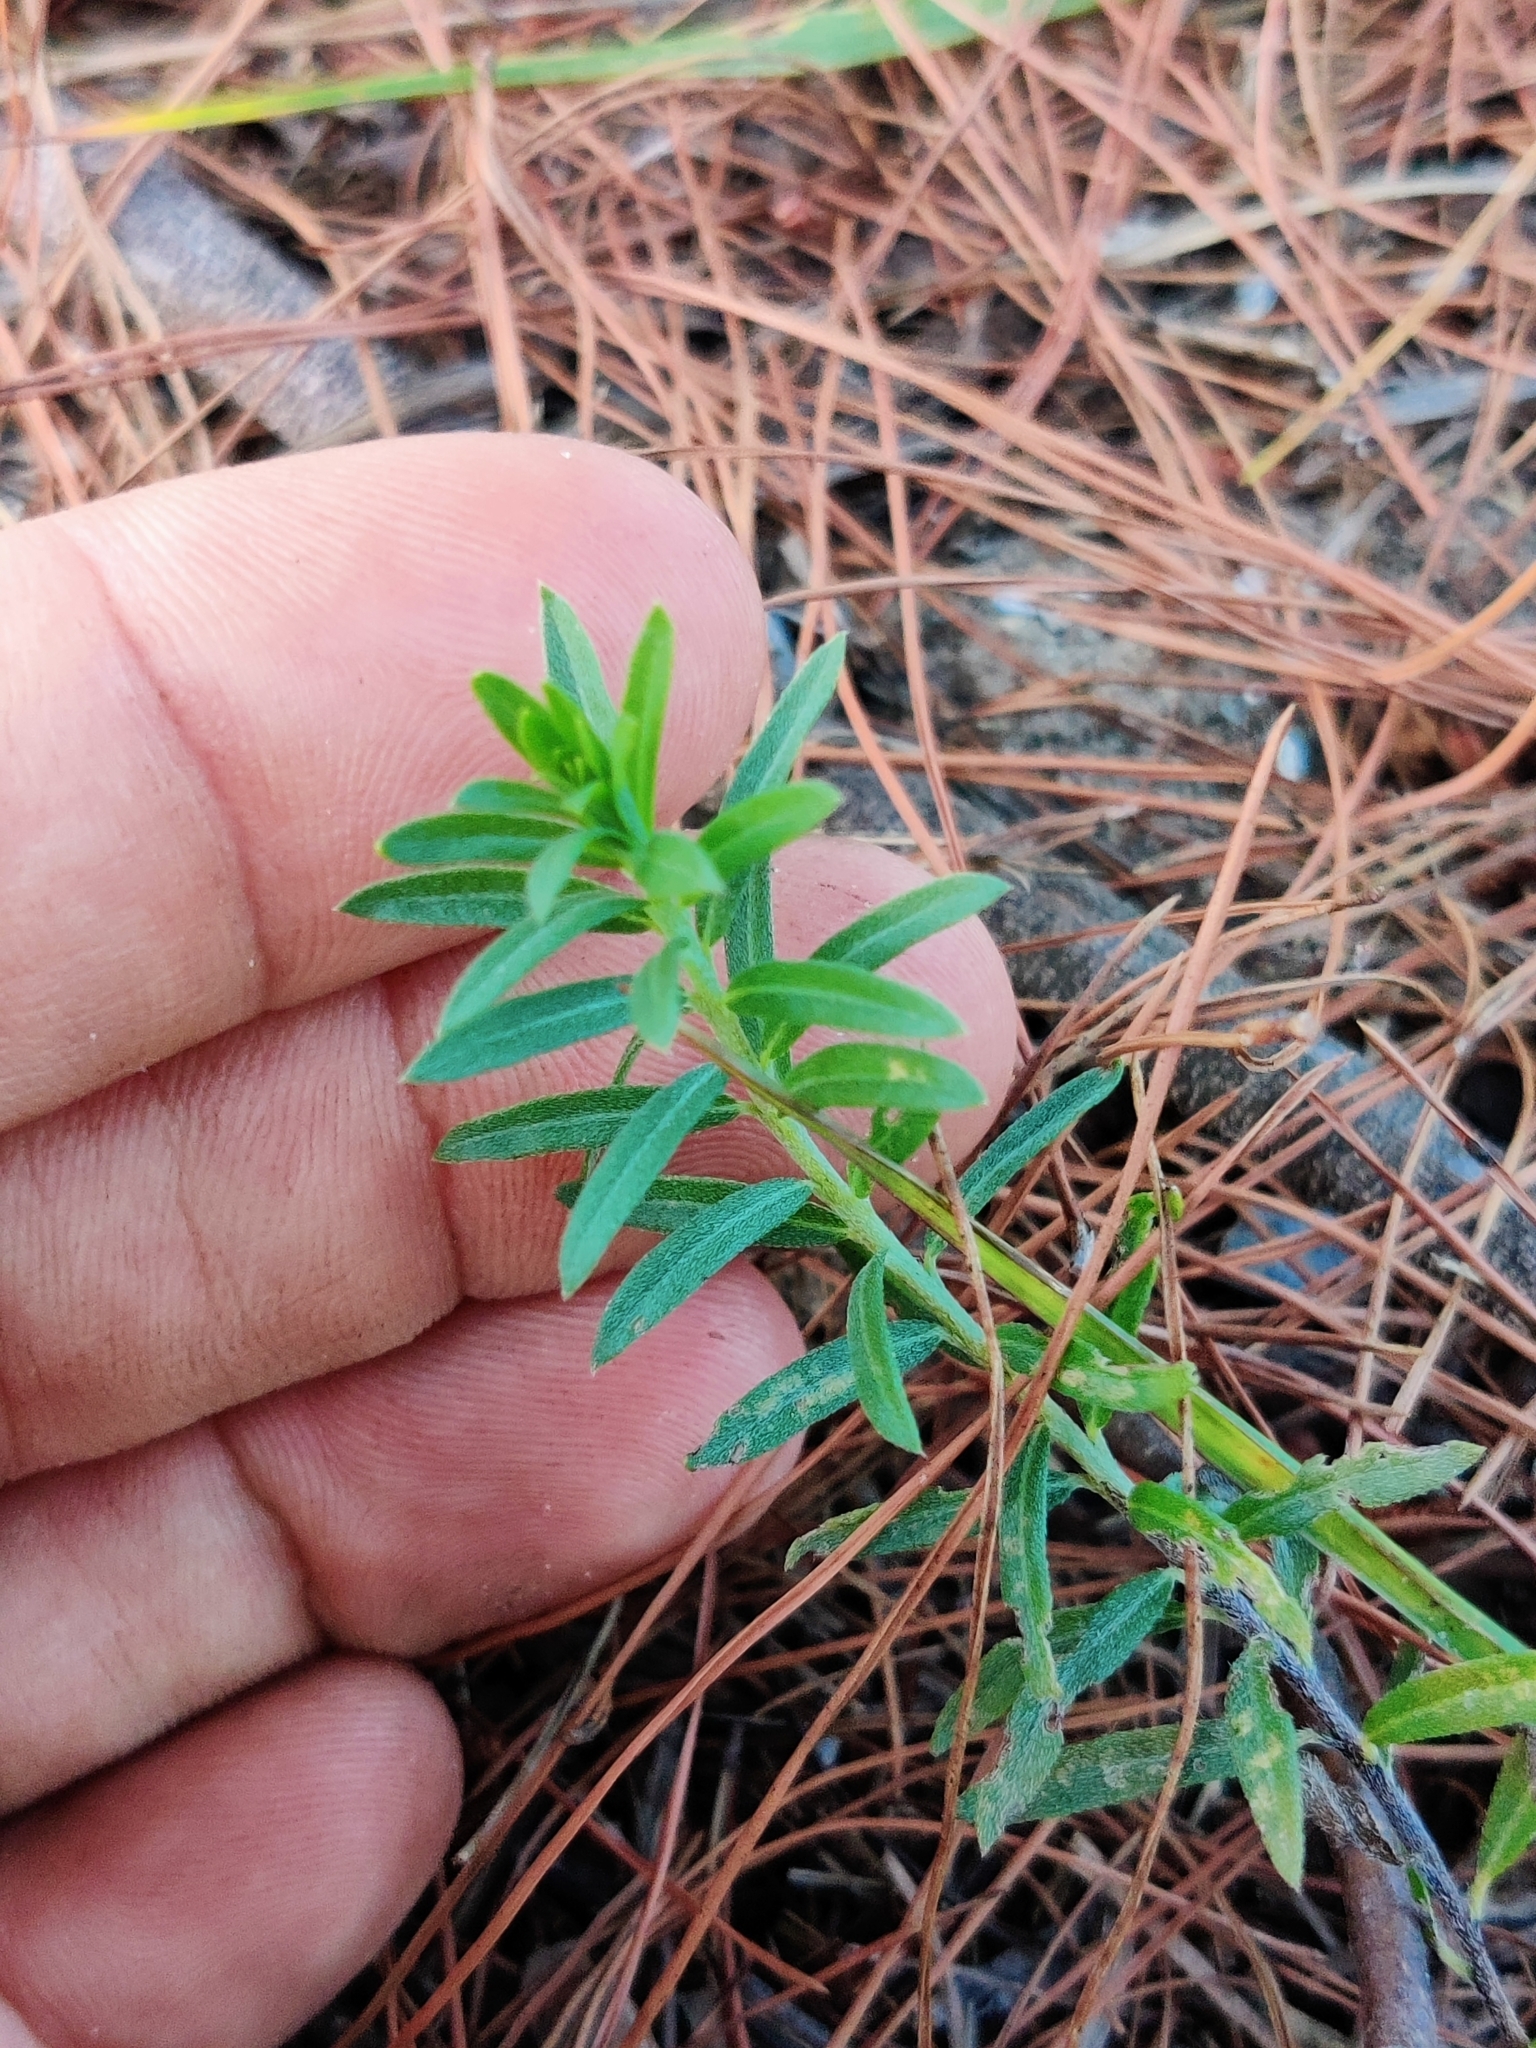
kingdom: Plantae
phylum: Tracheophyta
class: Magnoliopsida
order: Boraginales
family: Heliotropiaceae
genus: Euploca
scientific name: Euploca polyphylla
